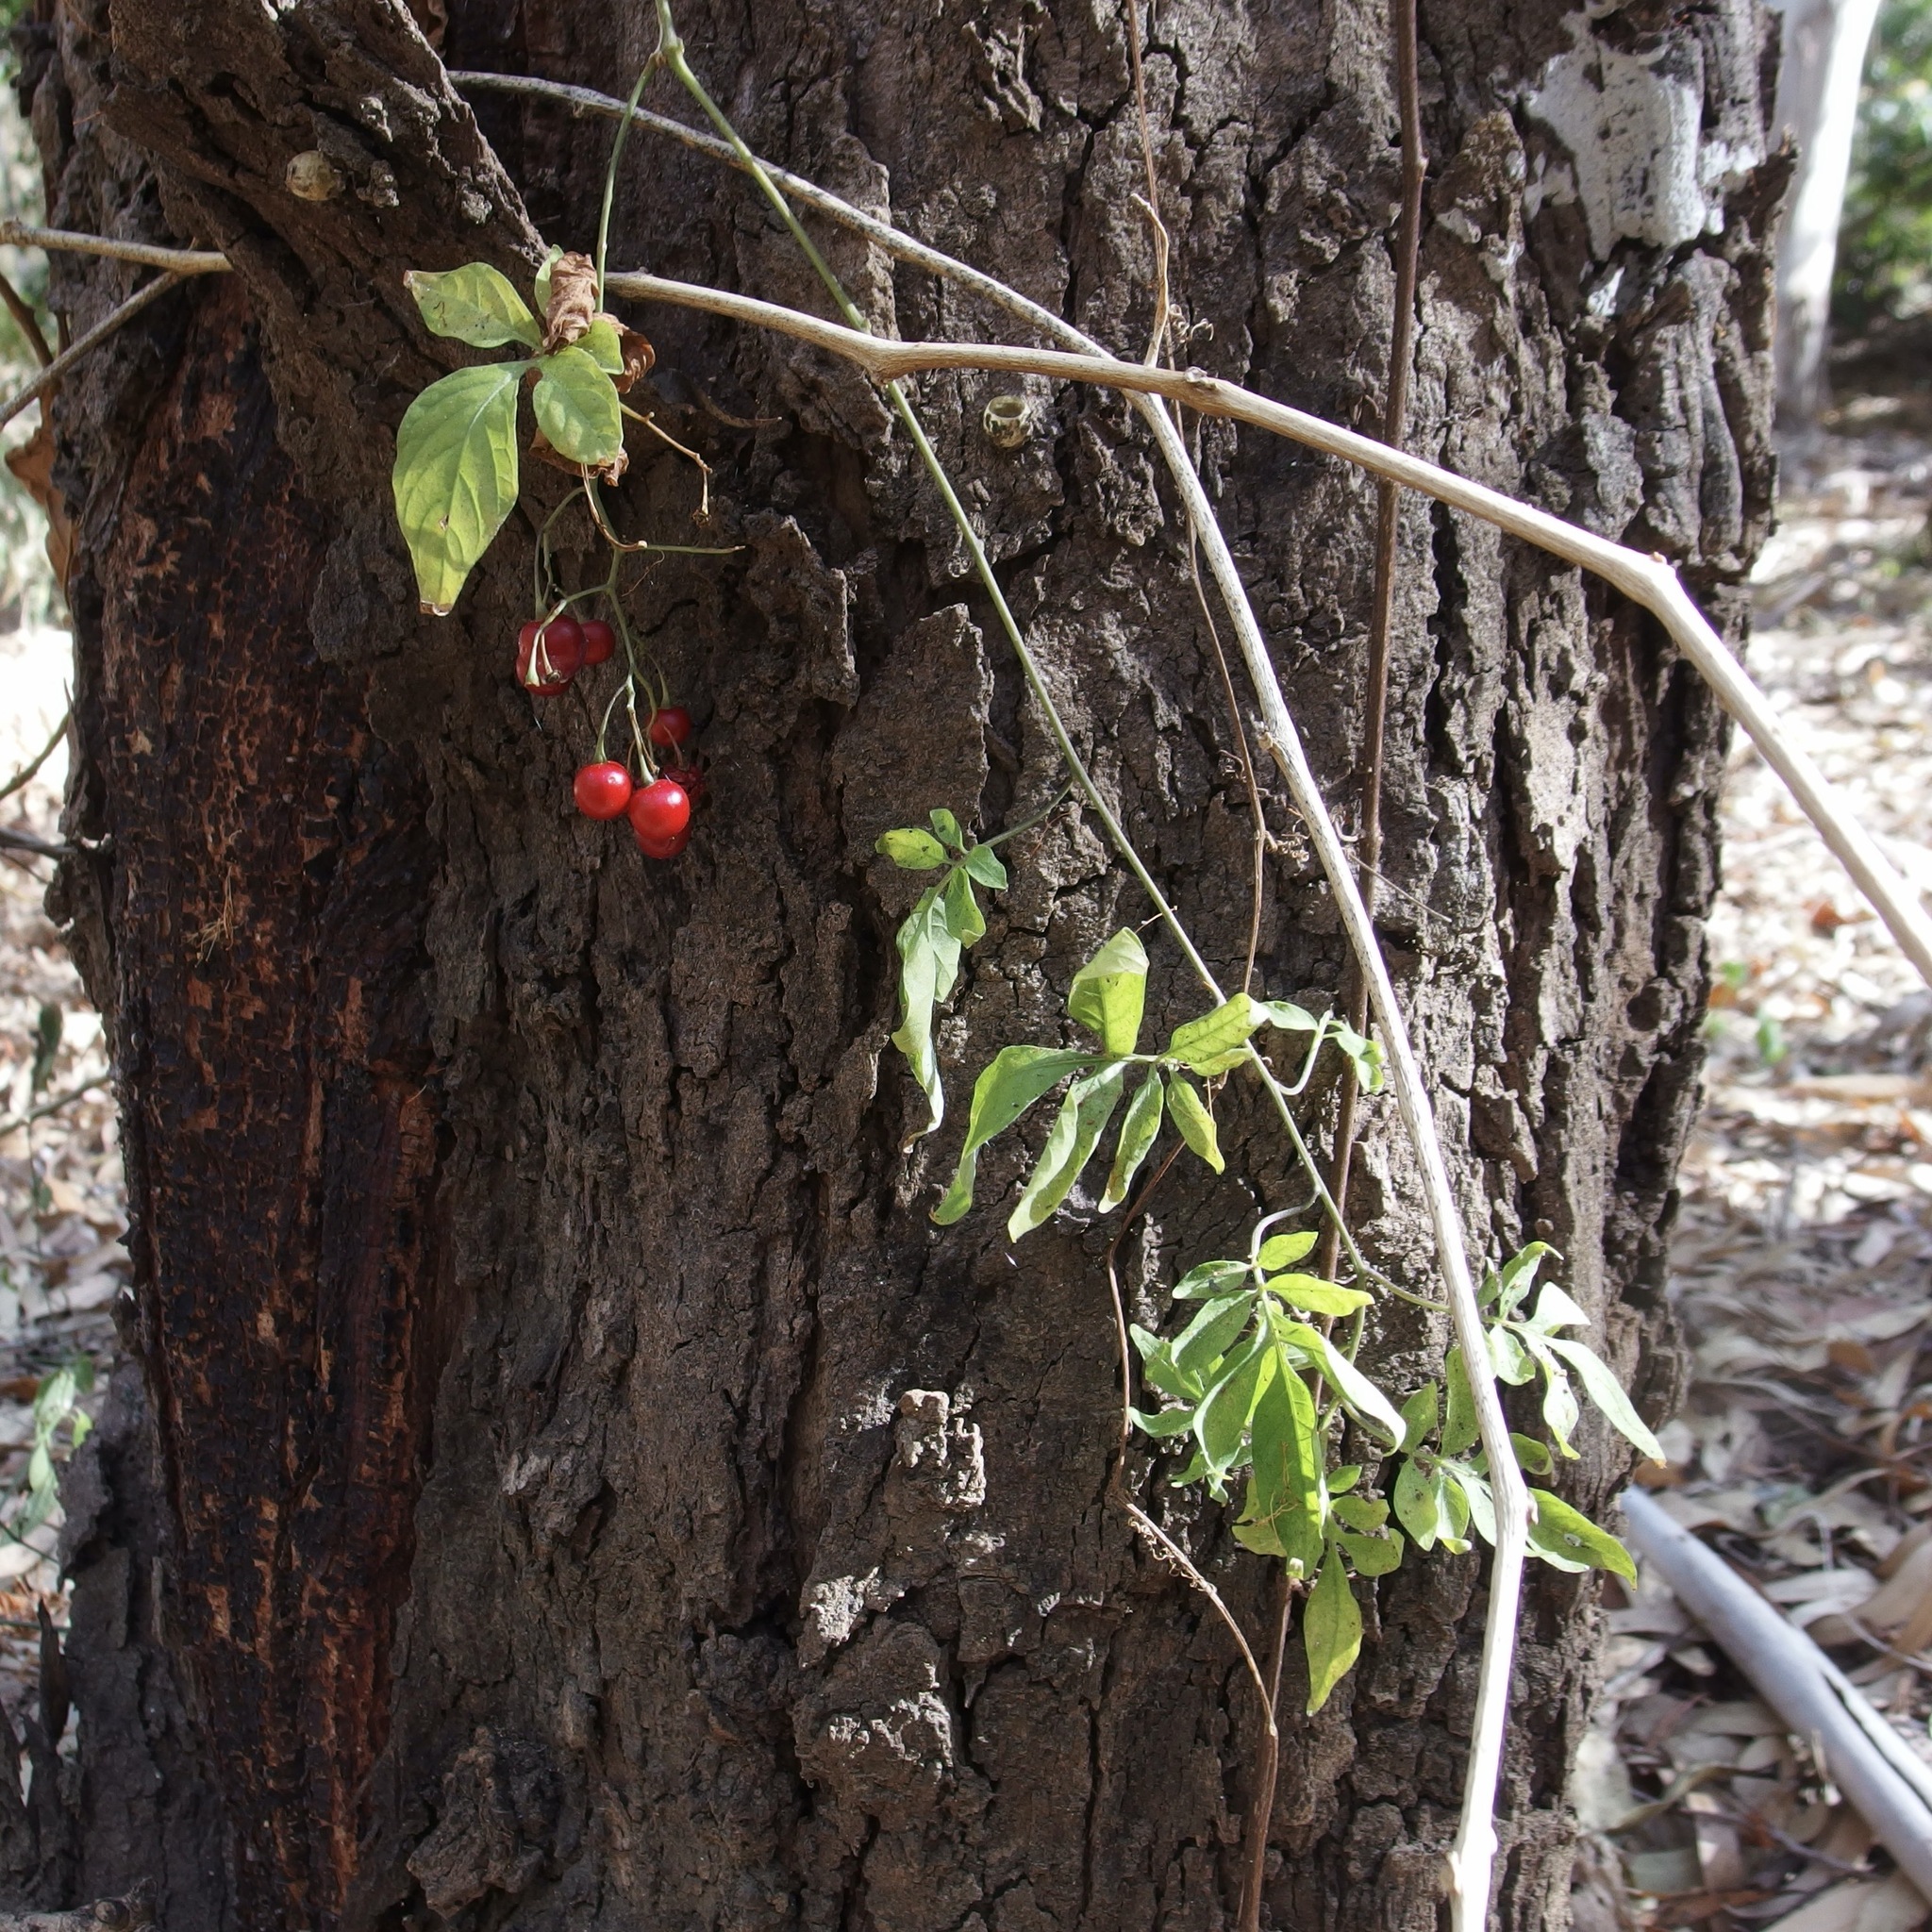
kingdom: Plantae
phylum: Tracheophyta
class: Magnoliopsida
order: Solanales
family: Solanaceae
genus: Solanum
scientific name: Solanum seaforthianum
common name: Brazilian nightshade
